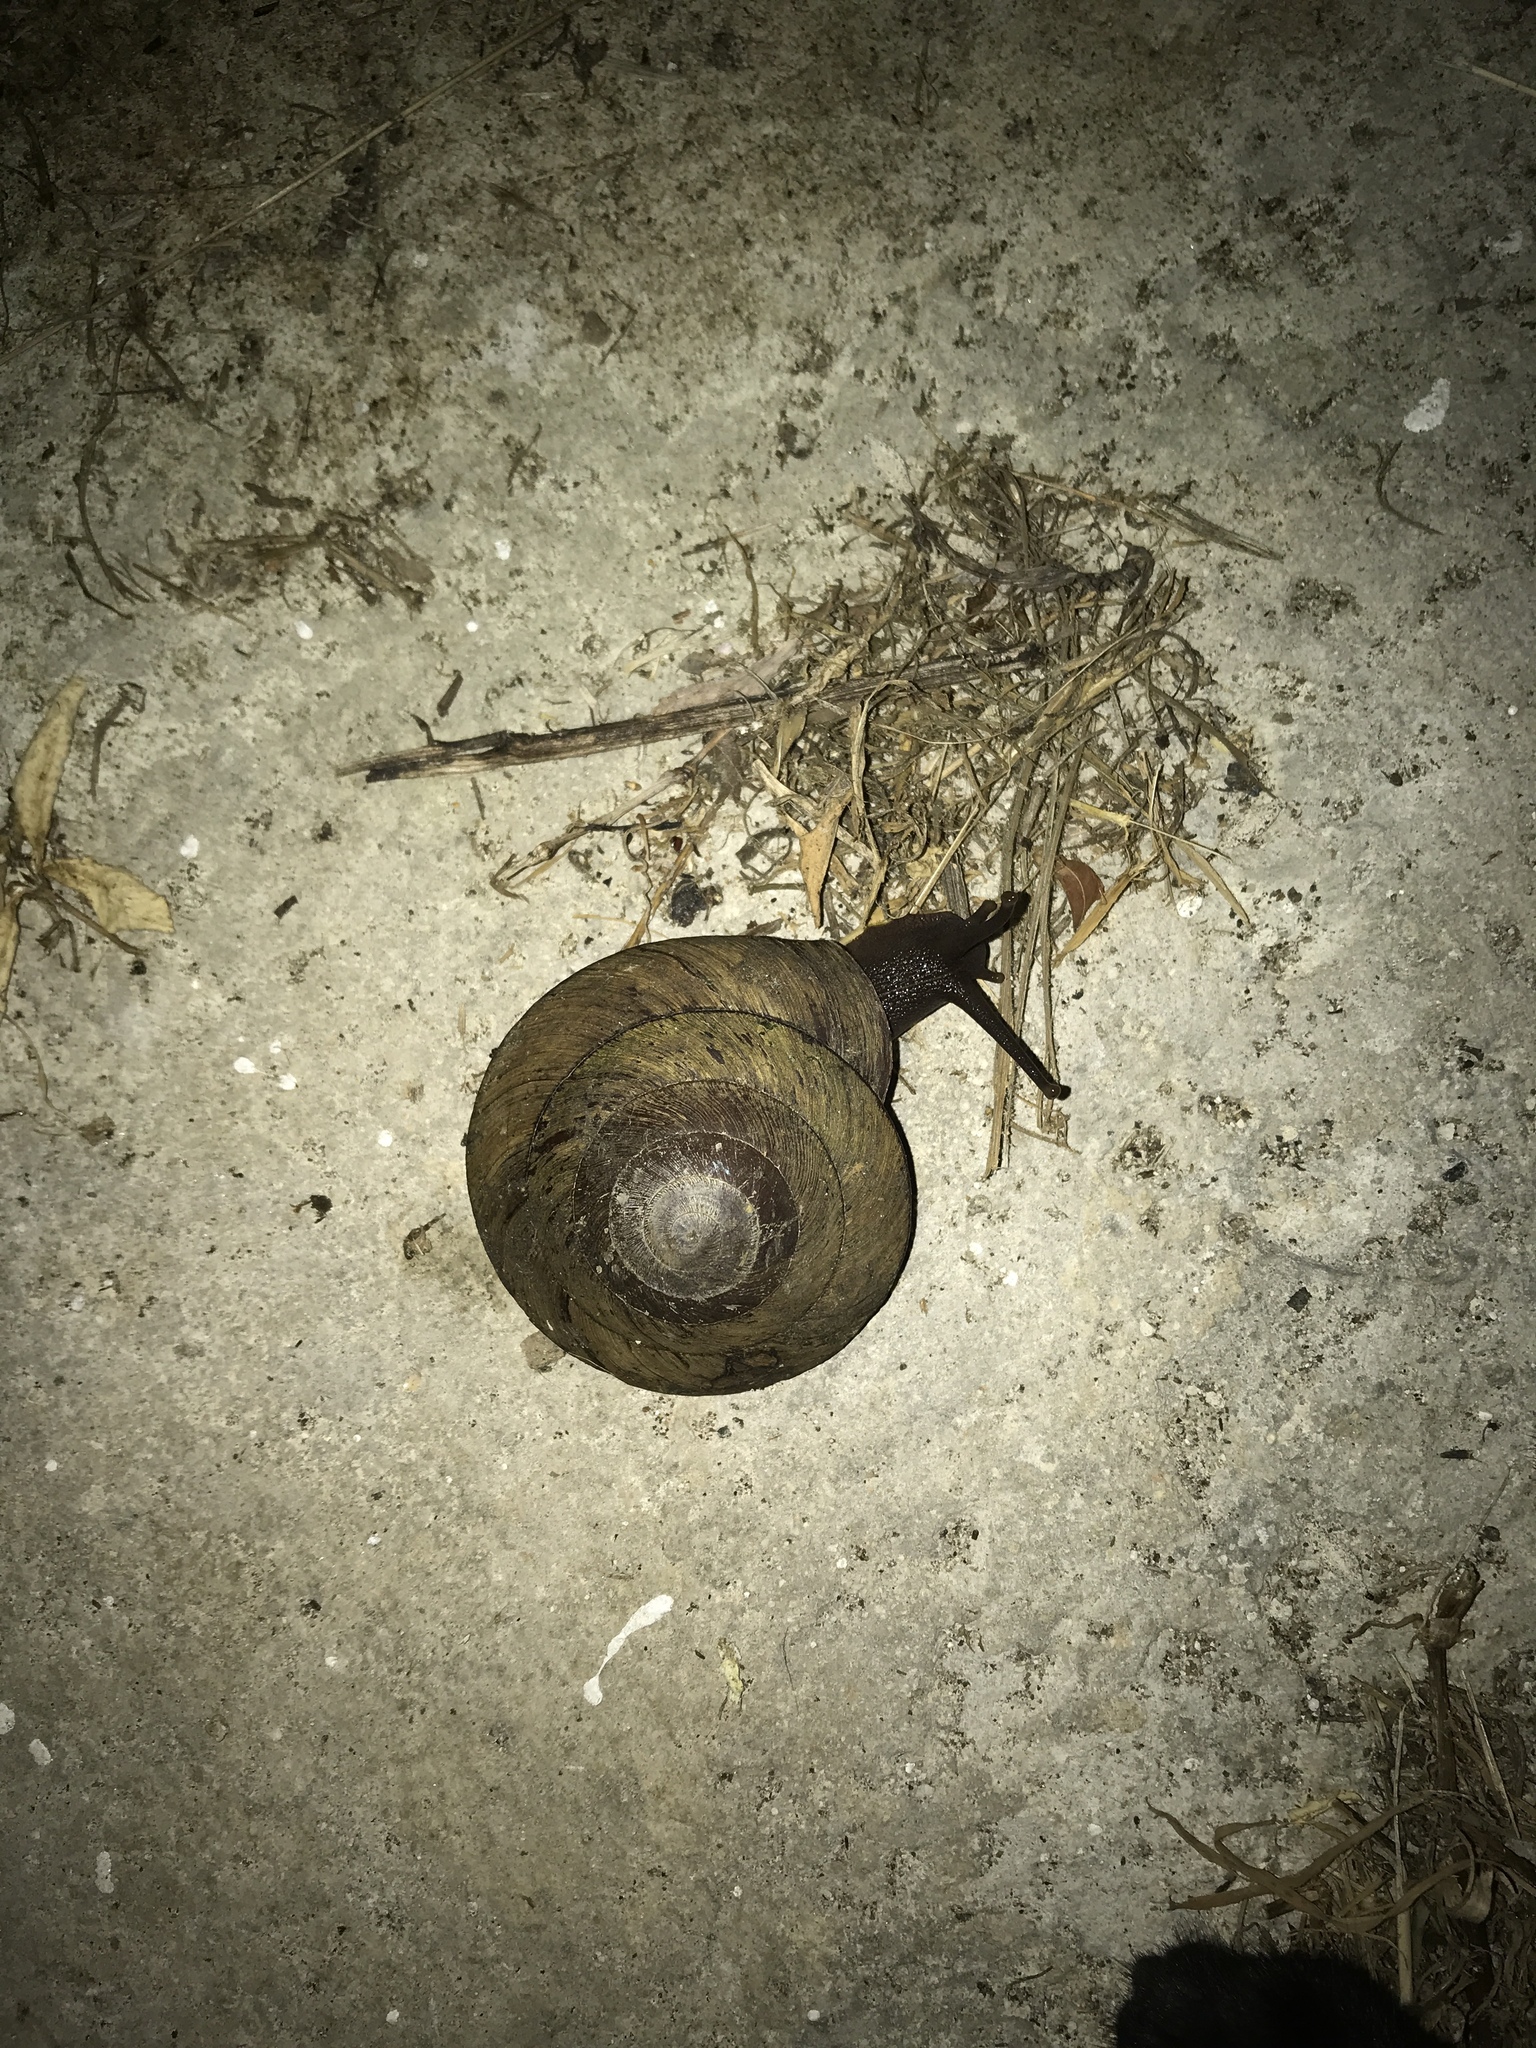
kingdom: Animalia
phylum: Mollusca
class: Gastropoda
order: Stylommatophora
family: Solaropsidae
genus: Caracolus
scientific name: Caracolus carocolla
